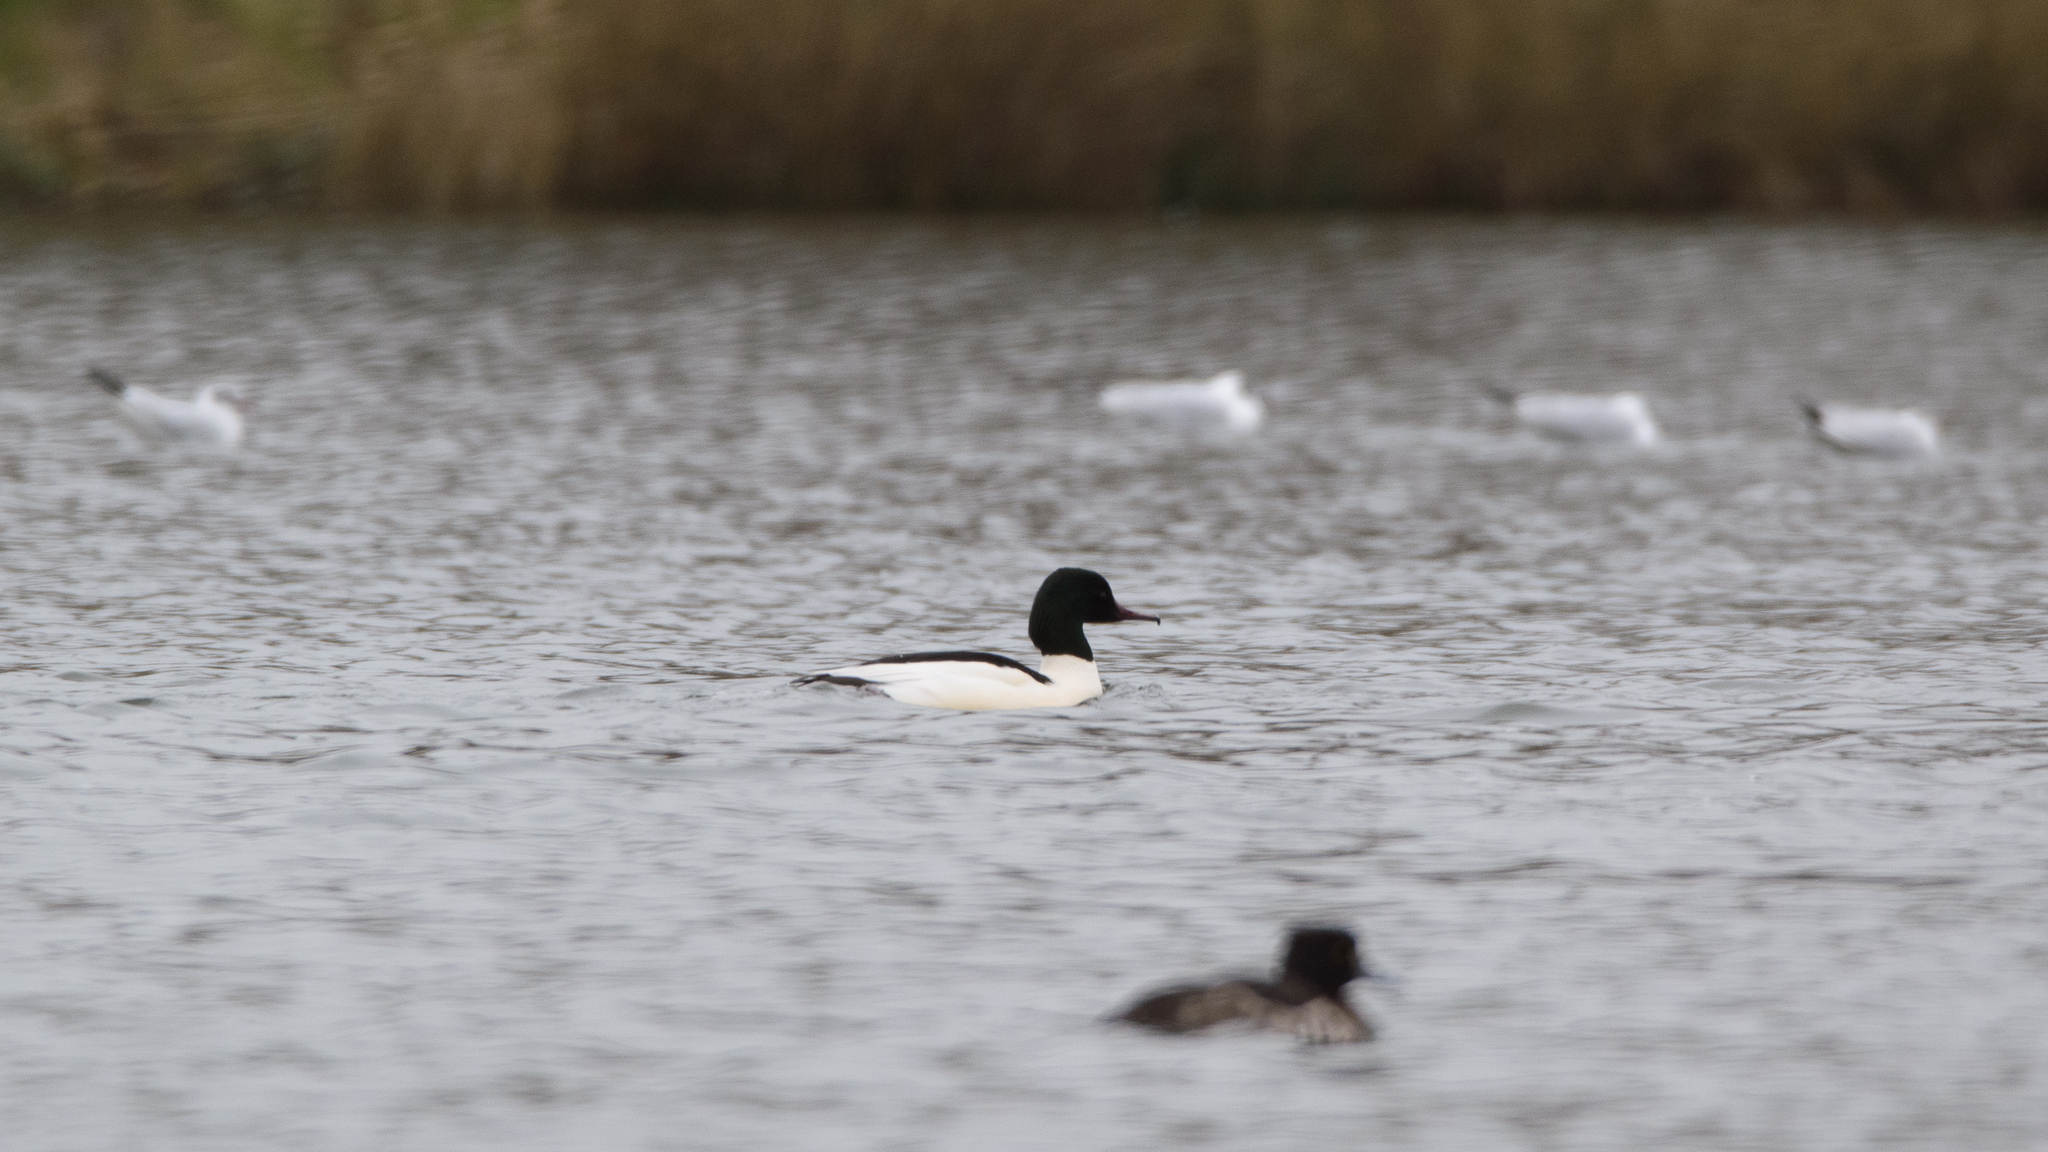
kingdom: Animalia
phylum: Chordata
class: Aves
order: Anseriformes
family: Anatidae
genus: Mergus
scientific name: Mergus merganser
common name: Common merganser
